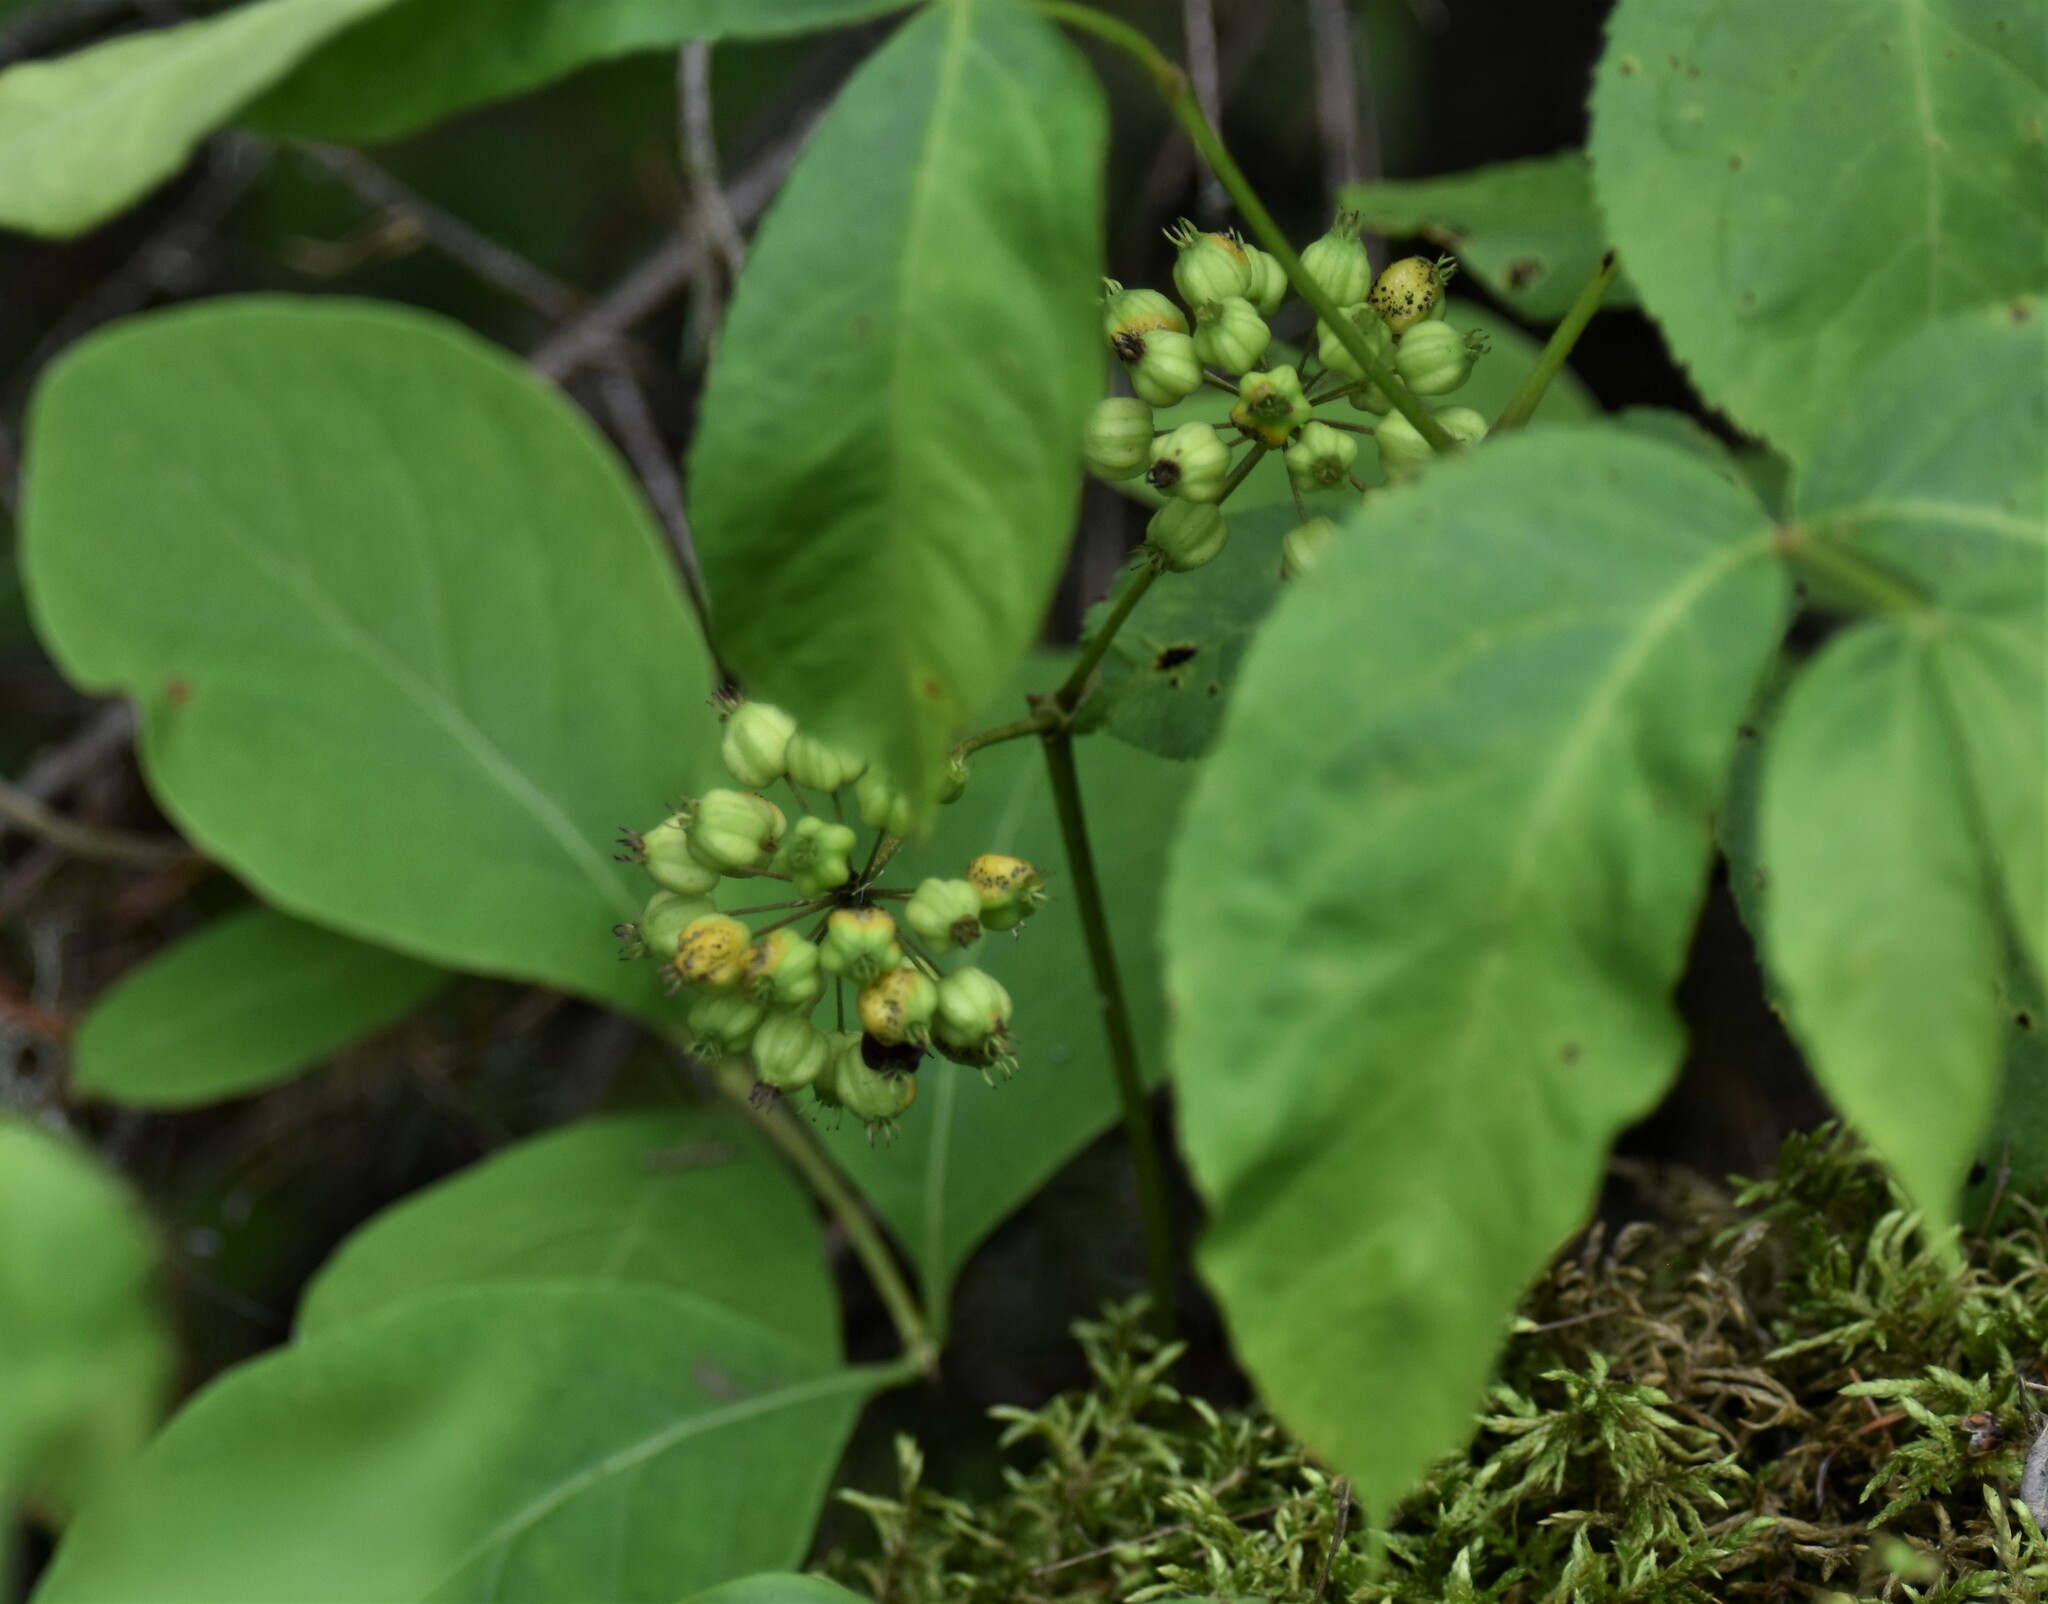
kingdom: Plantae
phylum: Tracheophyta
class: Magnoliopsida
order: Apiales
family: Araliaceae
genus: Aralia
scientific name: Aralia nudicaulis
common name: Wild sarsaparilla
